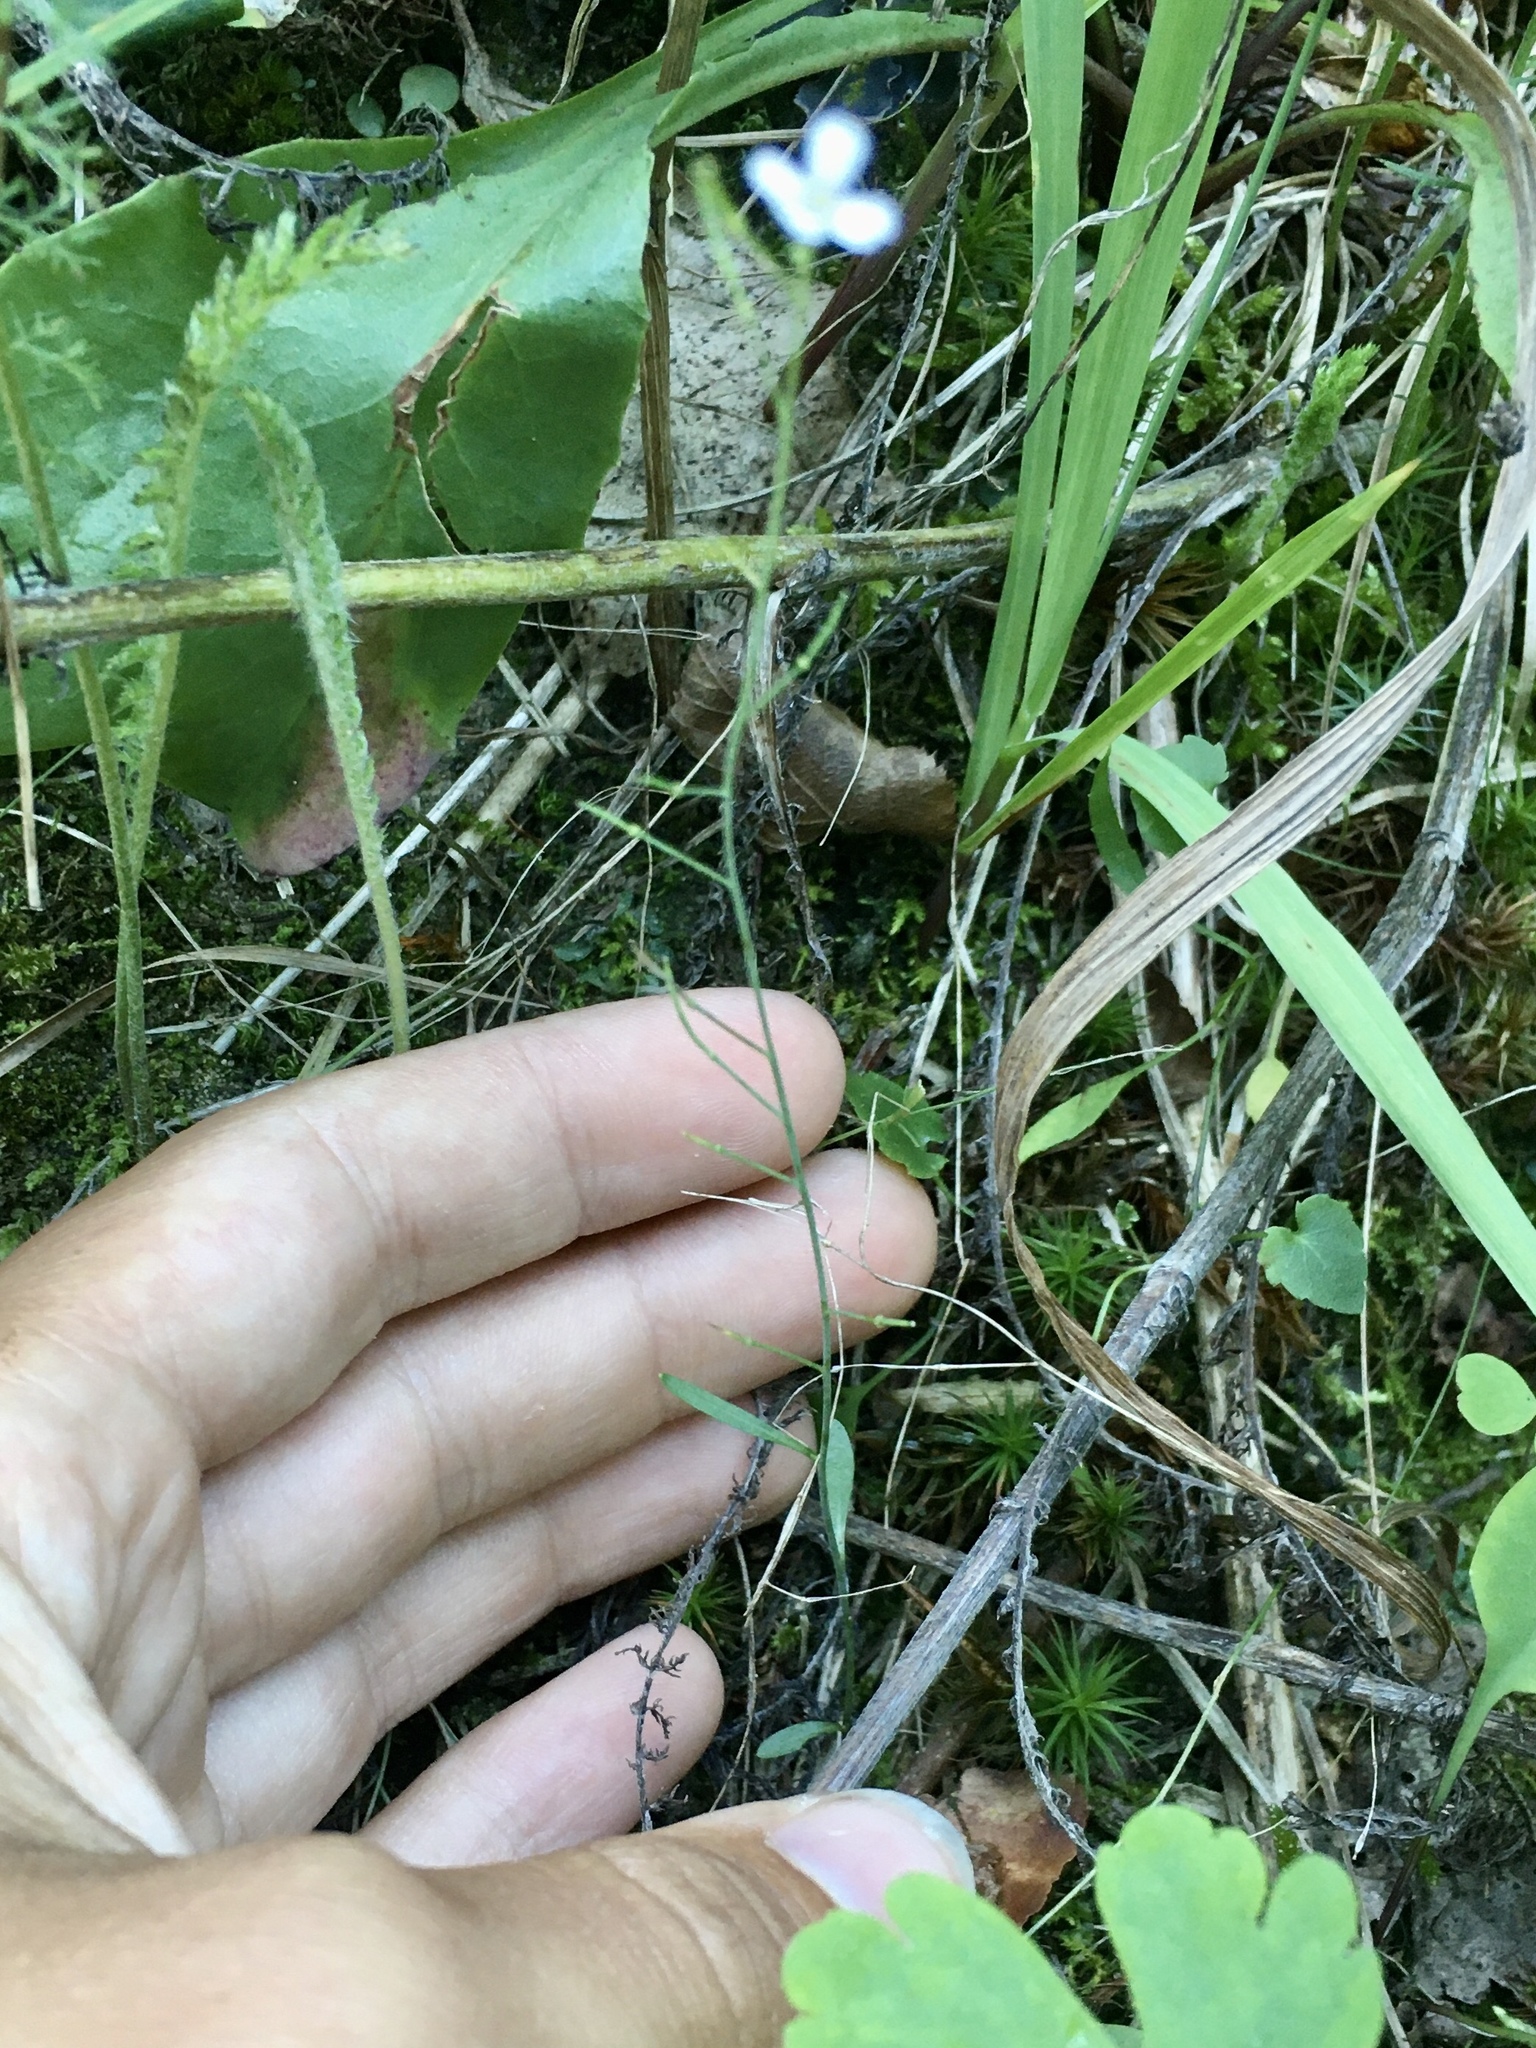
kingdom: Plantae
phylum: Tracheophyta
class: Magnoliopsida
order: Brassicales
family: Brassicaceae
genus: Arabidopsis
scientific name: Arabidopsis lyrata
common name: Lyrate rockcress
